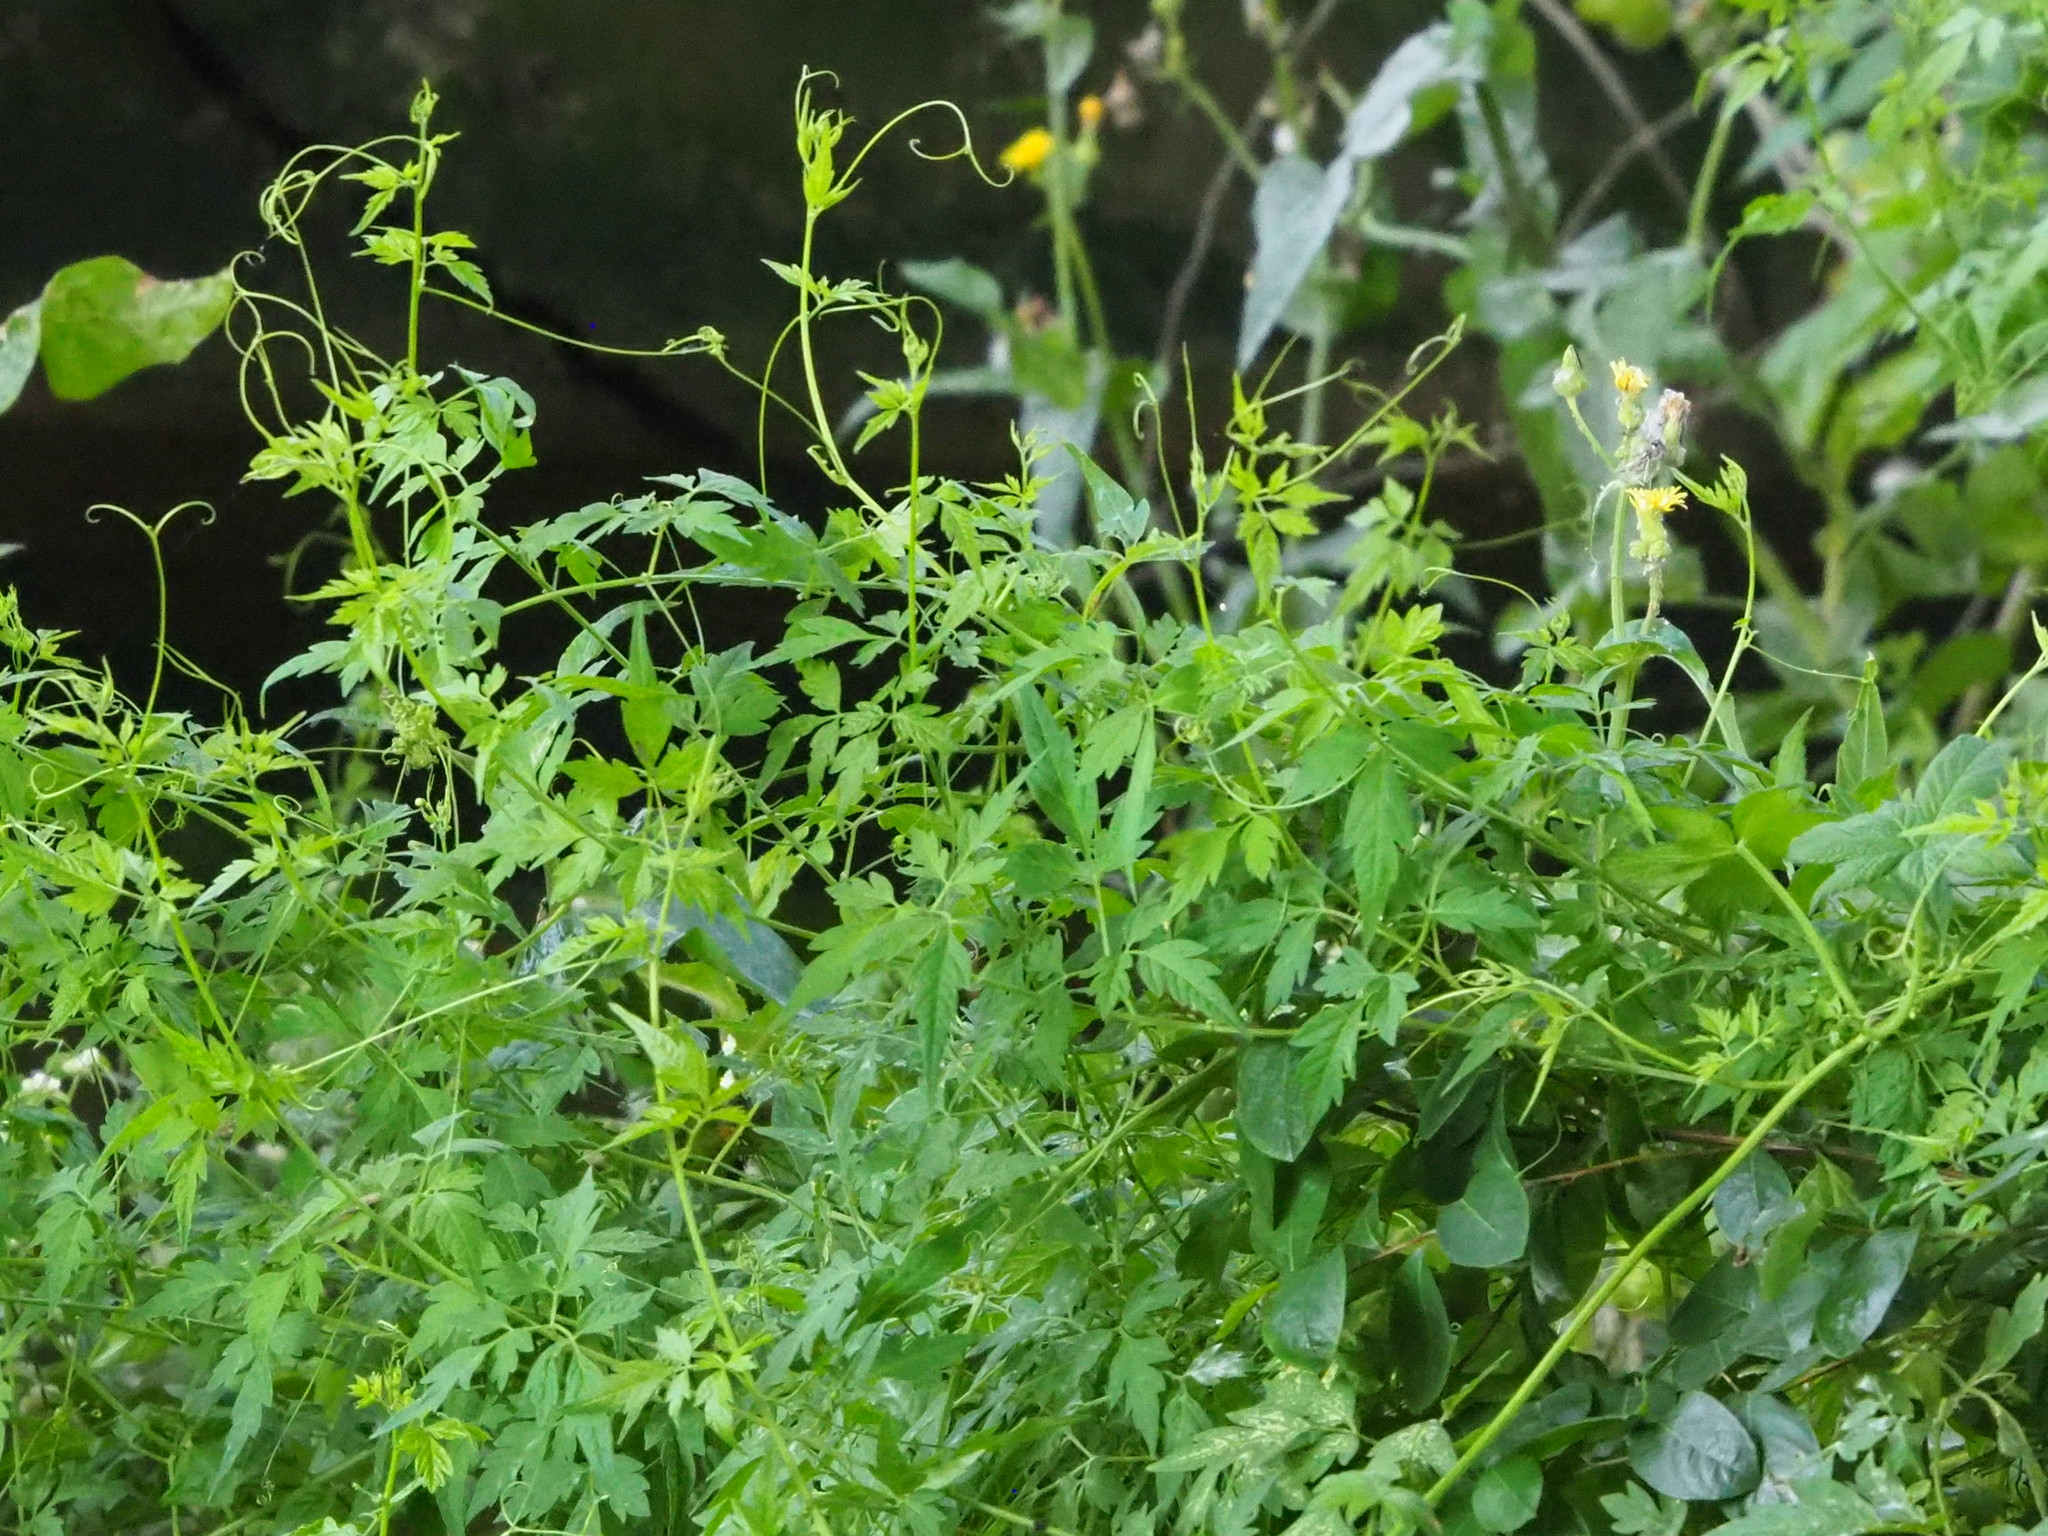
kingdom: Plantae
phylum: Tracheophyta
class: Magnoliopsida
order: Sapindales
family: Sapindaceae
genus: Cardiospermum
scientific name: Cardiospermum halicacabum
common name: Balloon vine
